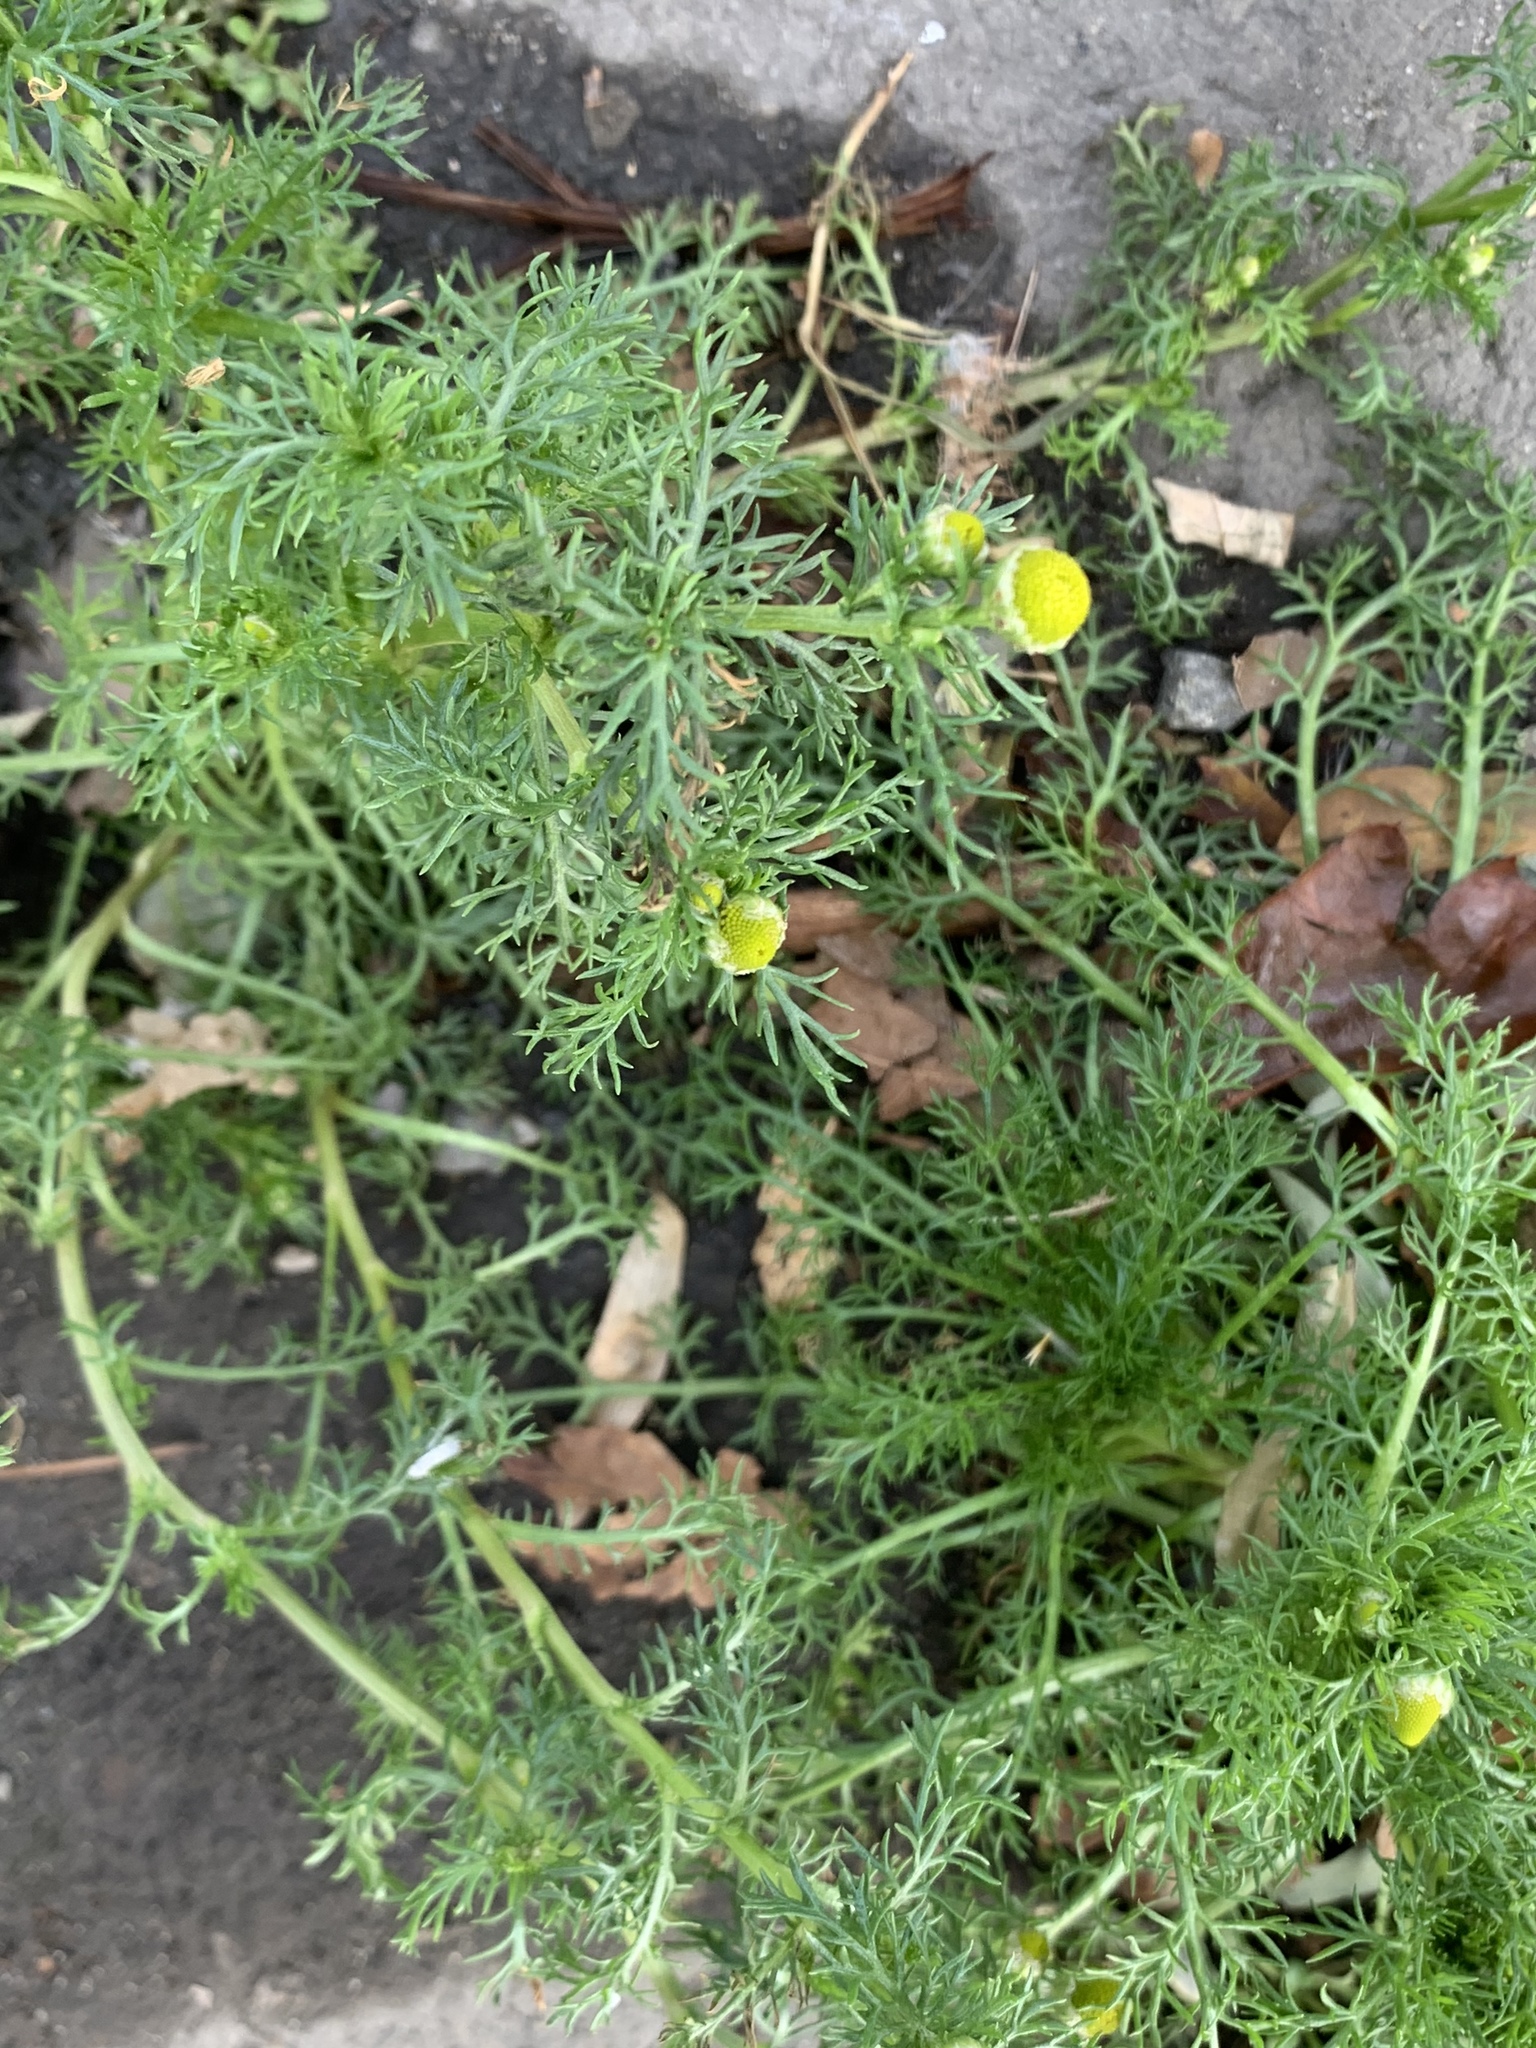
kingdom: Plantae
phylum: Tracheophyta
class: Magnoliopsida
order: Asterales
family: Asteraceae
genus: Matricaria
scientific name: Matricaria discoidea
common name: Disc mayweed
